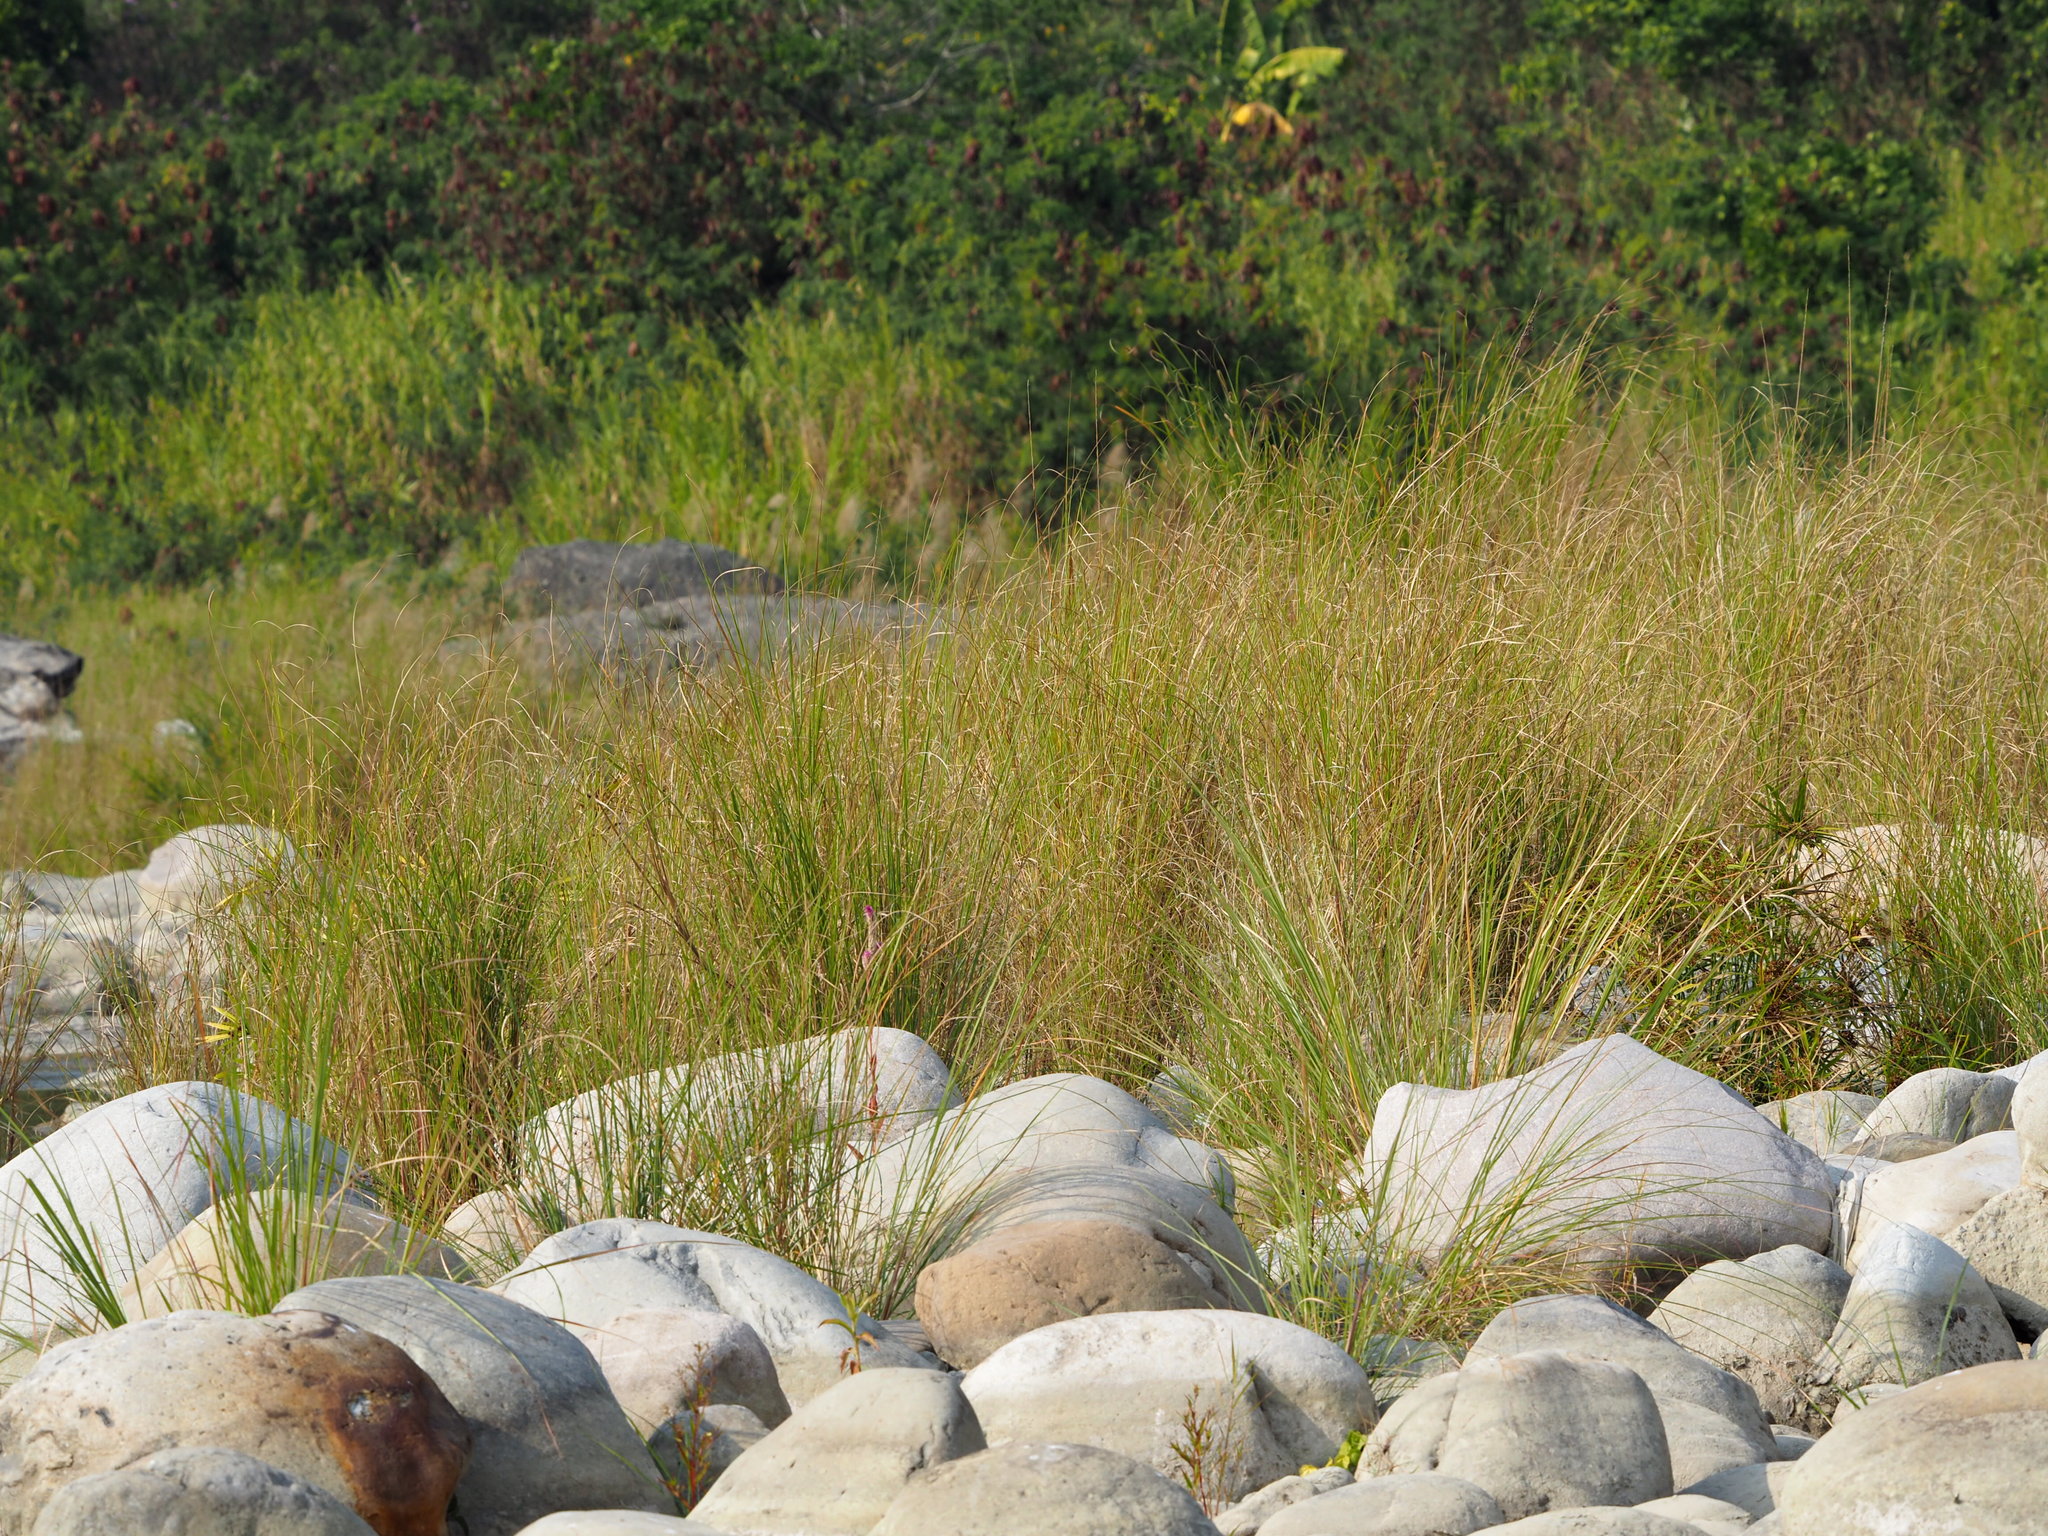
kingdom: Plantae
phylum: Tracheophyta
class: Liliopsida
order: Poales
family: Poaceae
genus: Saccharum
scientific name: Saccharum spontaneum
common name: Wild sugarcane
